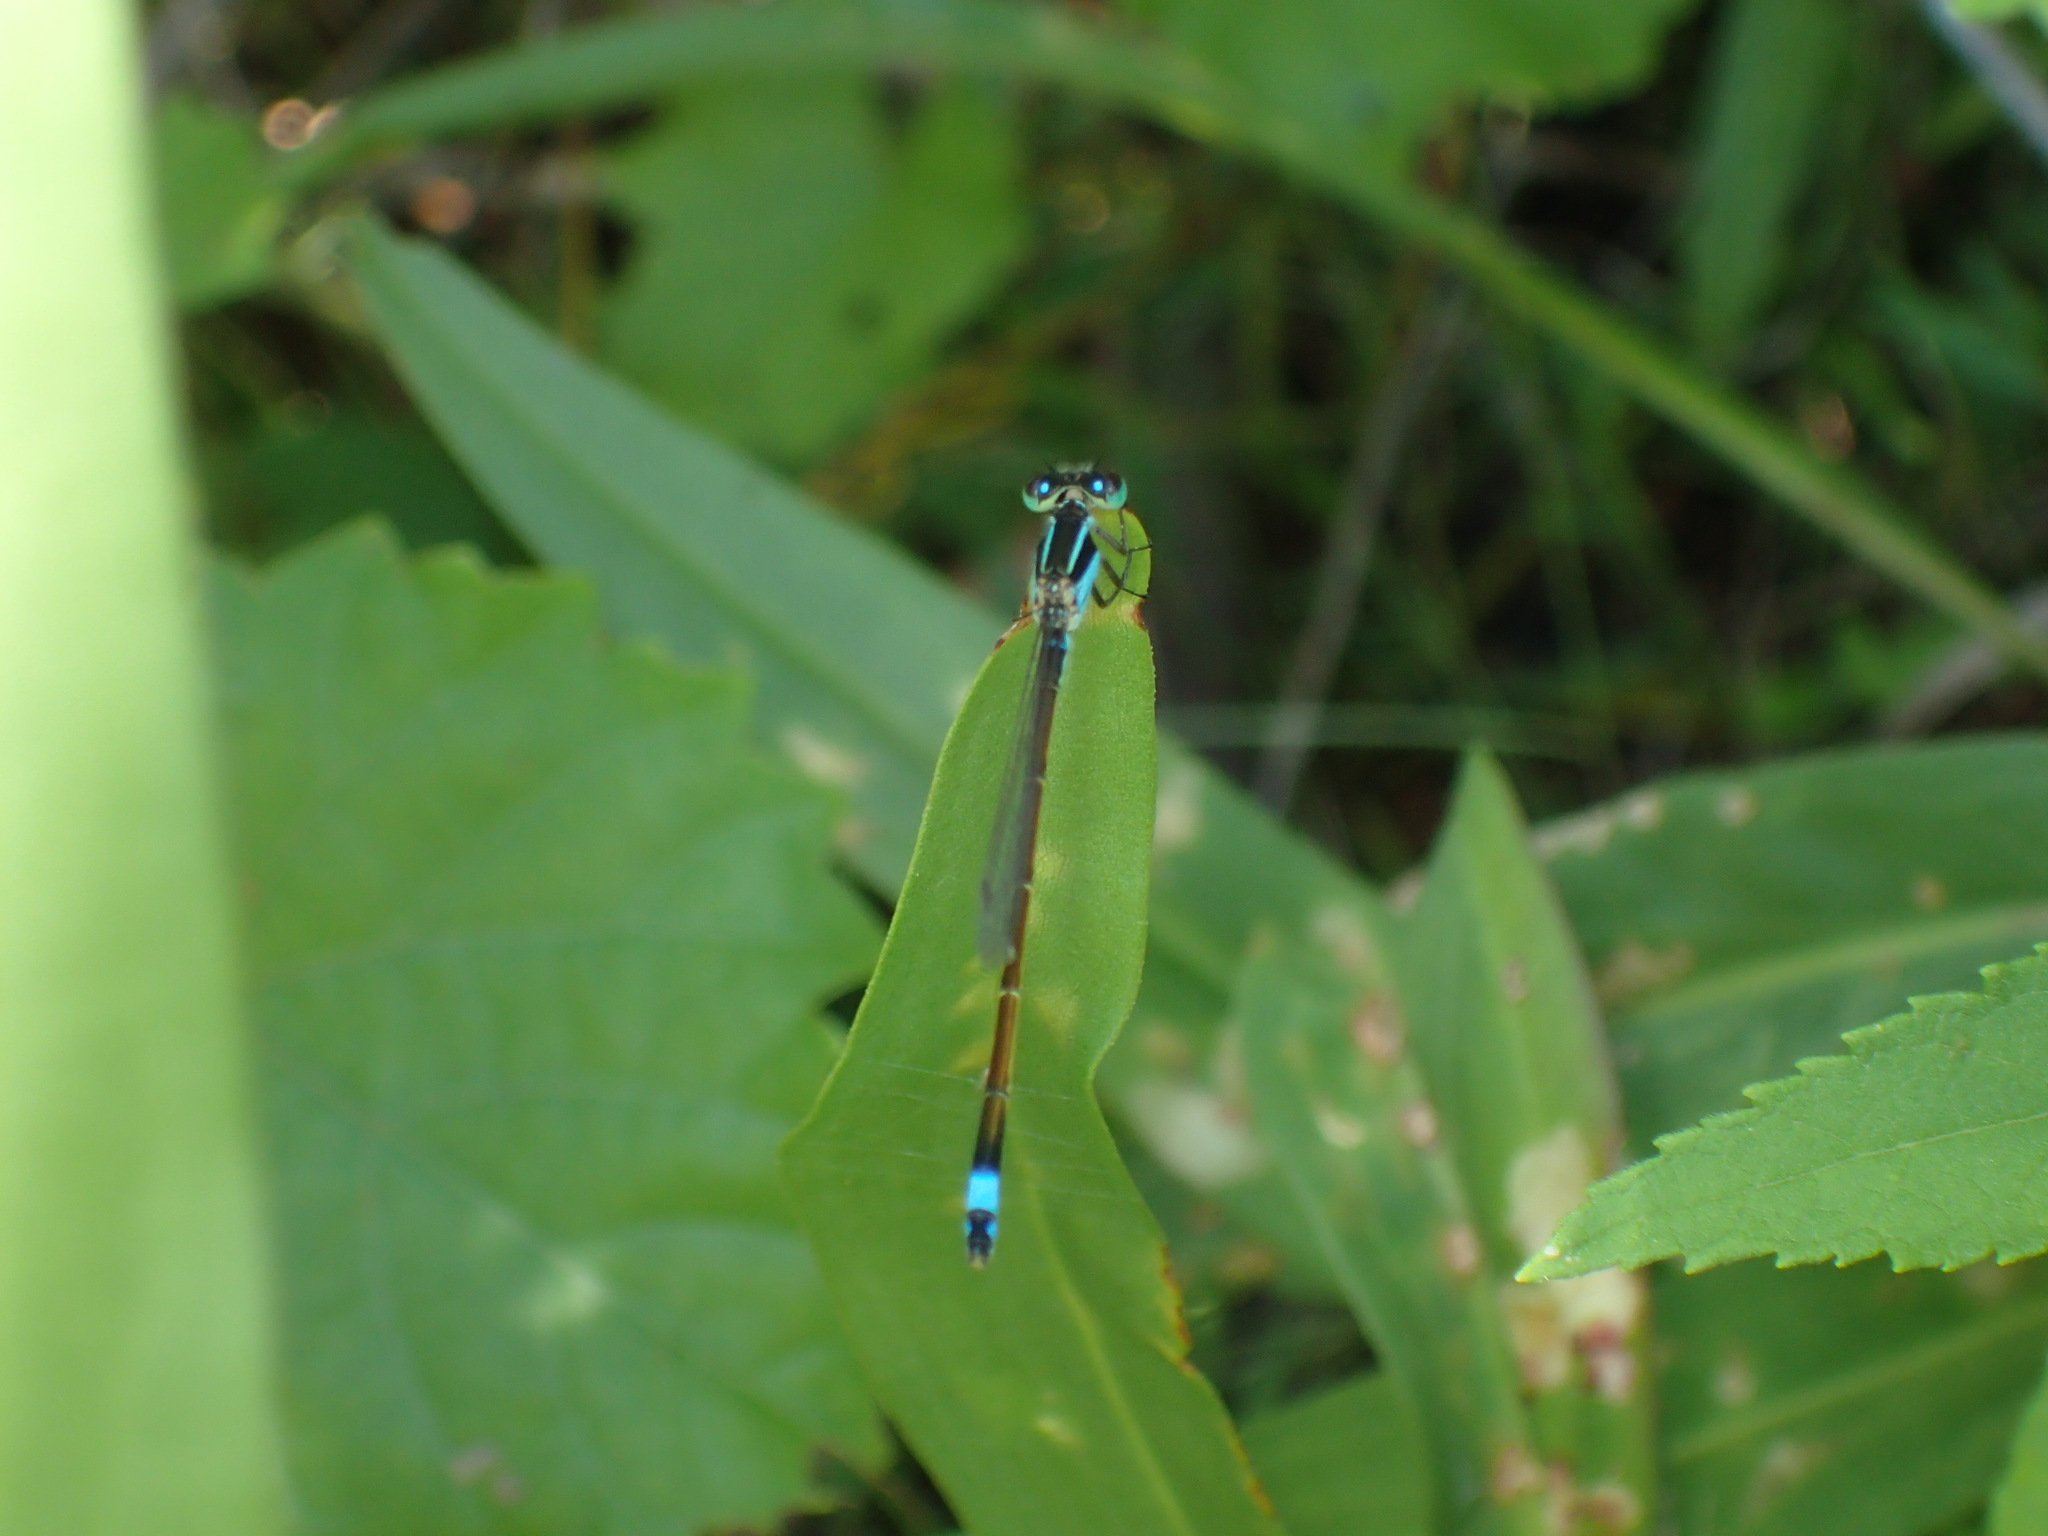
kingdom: Animalia
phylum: Arthropoda
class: Insecta
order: Odonata
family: Coenagrionidae
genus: Ischnura
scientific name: Ischnura ramburii
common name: Rambur's forktail
